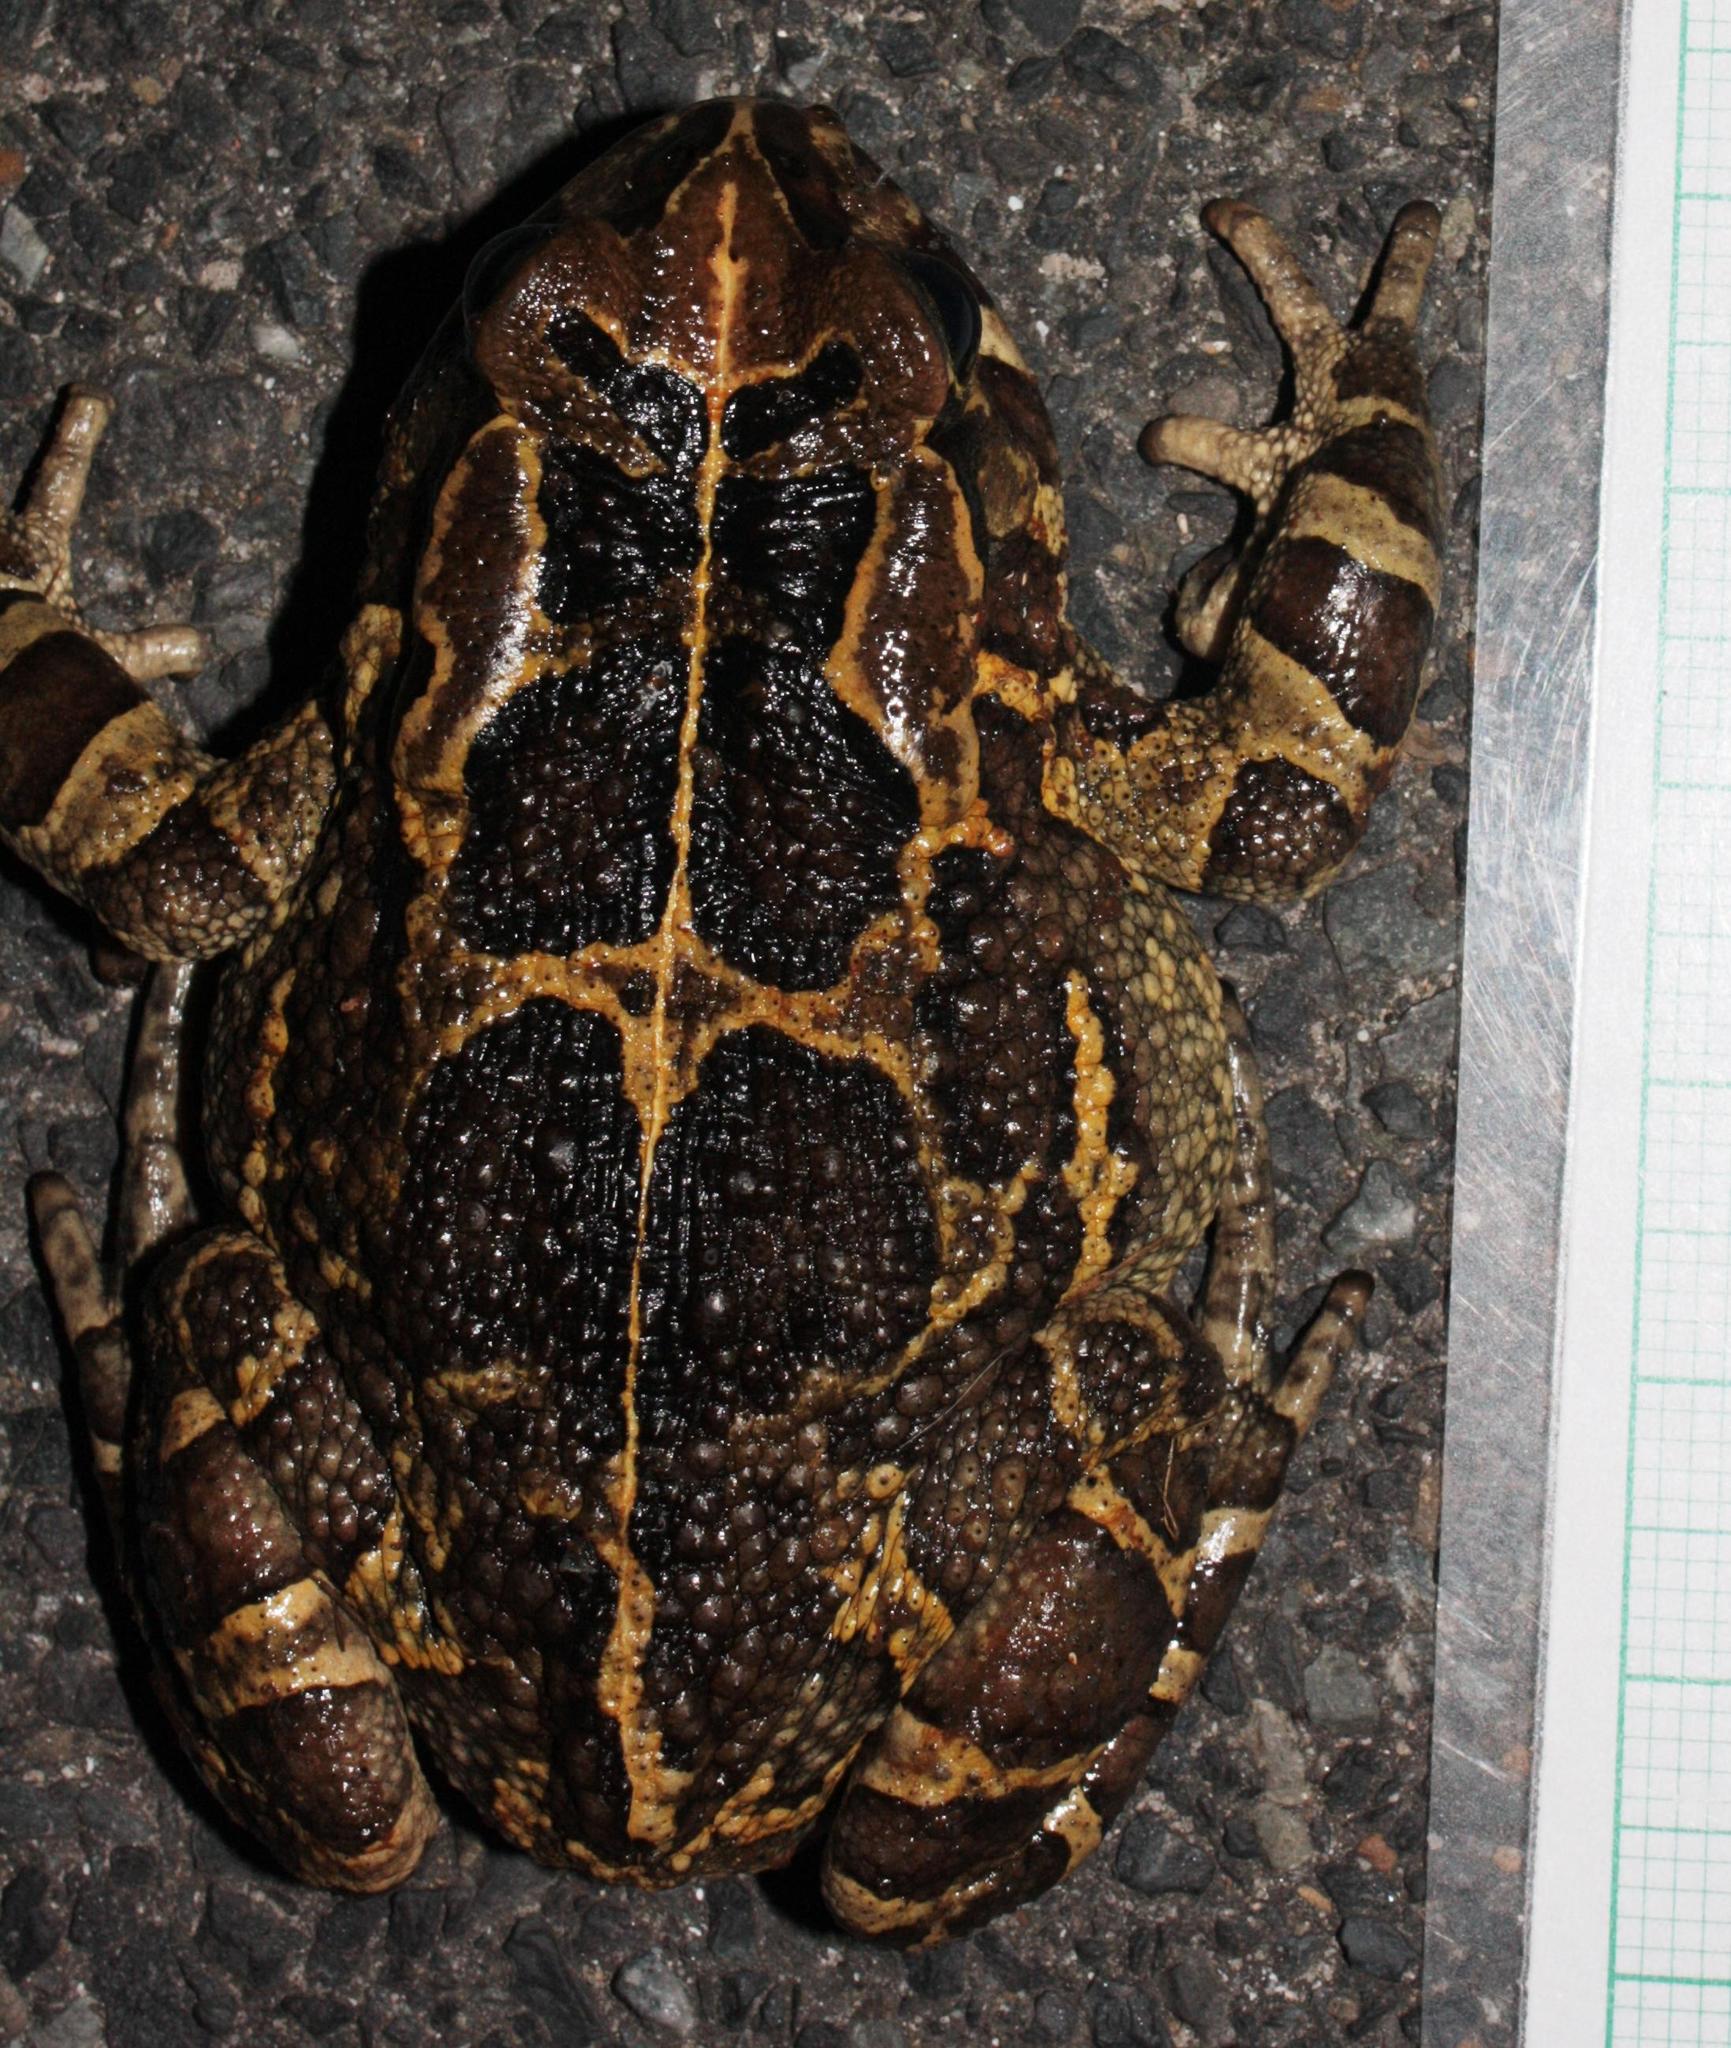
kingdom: Animalia
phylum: Chordata
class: Amphibia
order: Anura
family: Bufonidae
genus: Sclerophrys
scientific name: Sclerophrys pantherina
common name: Panther toad
